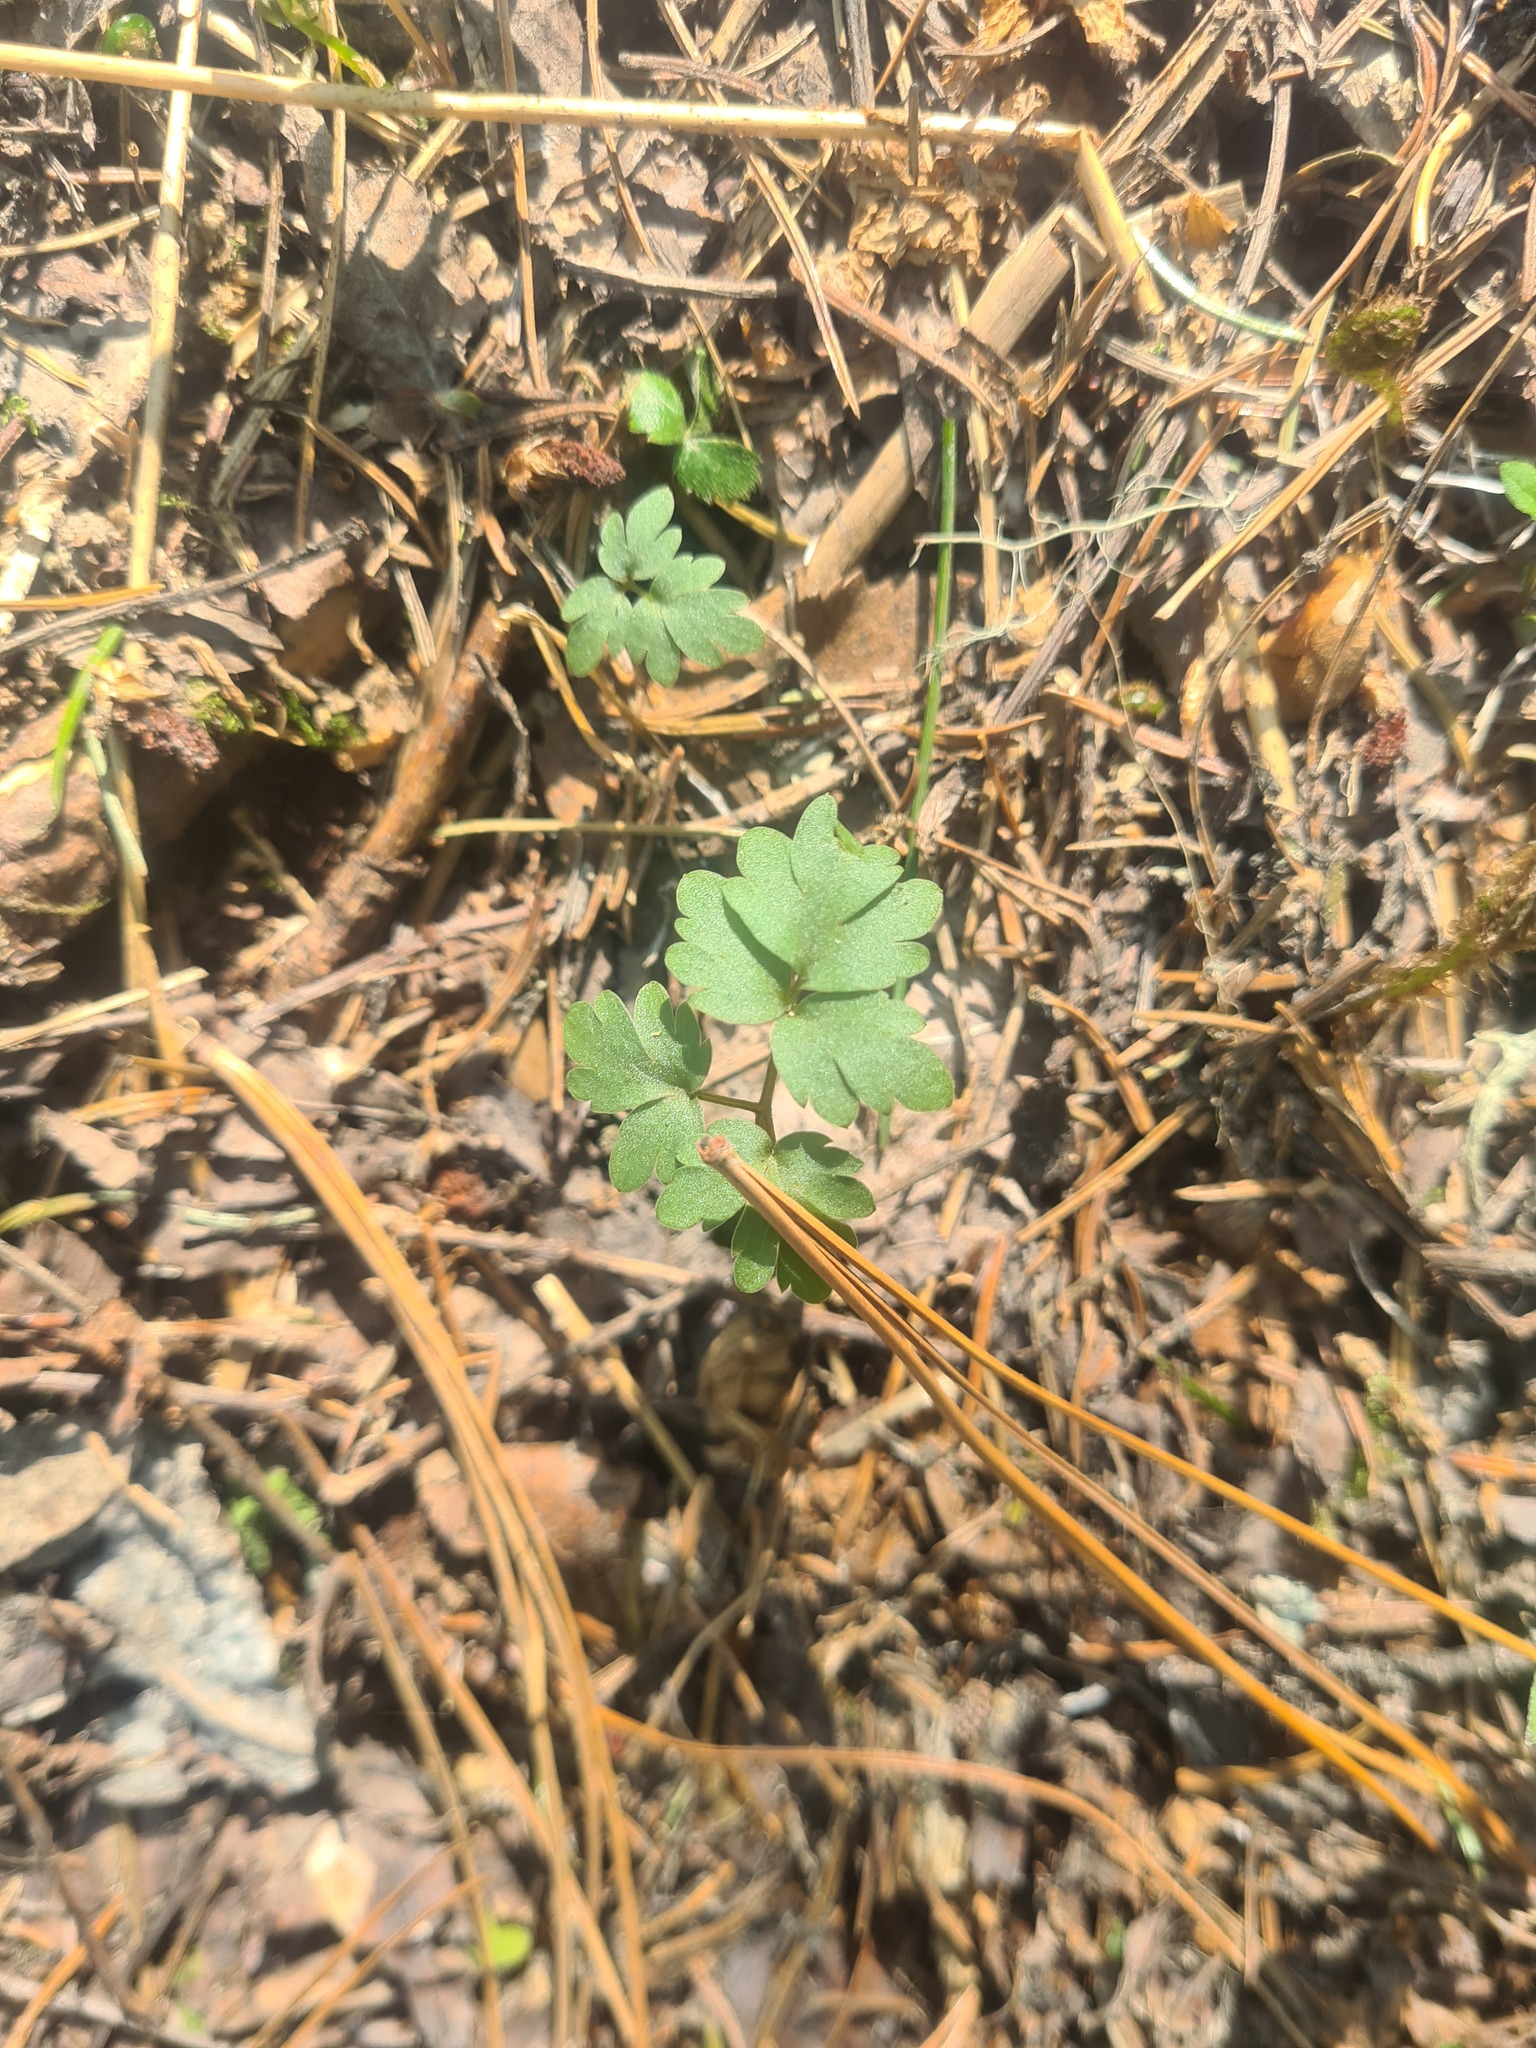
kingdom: Plantae
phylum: Tracheophyta
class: Magnoliopsida
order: Dipsacales
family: Viburnaceae
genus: Adoxa
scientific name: Adoxa moschatellina
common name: Moschatel
